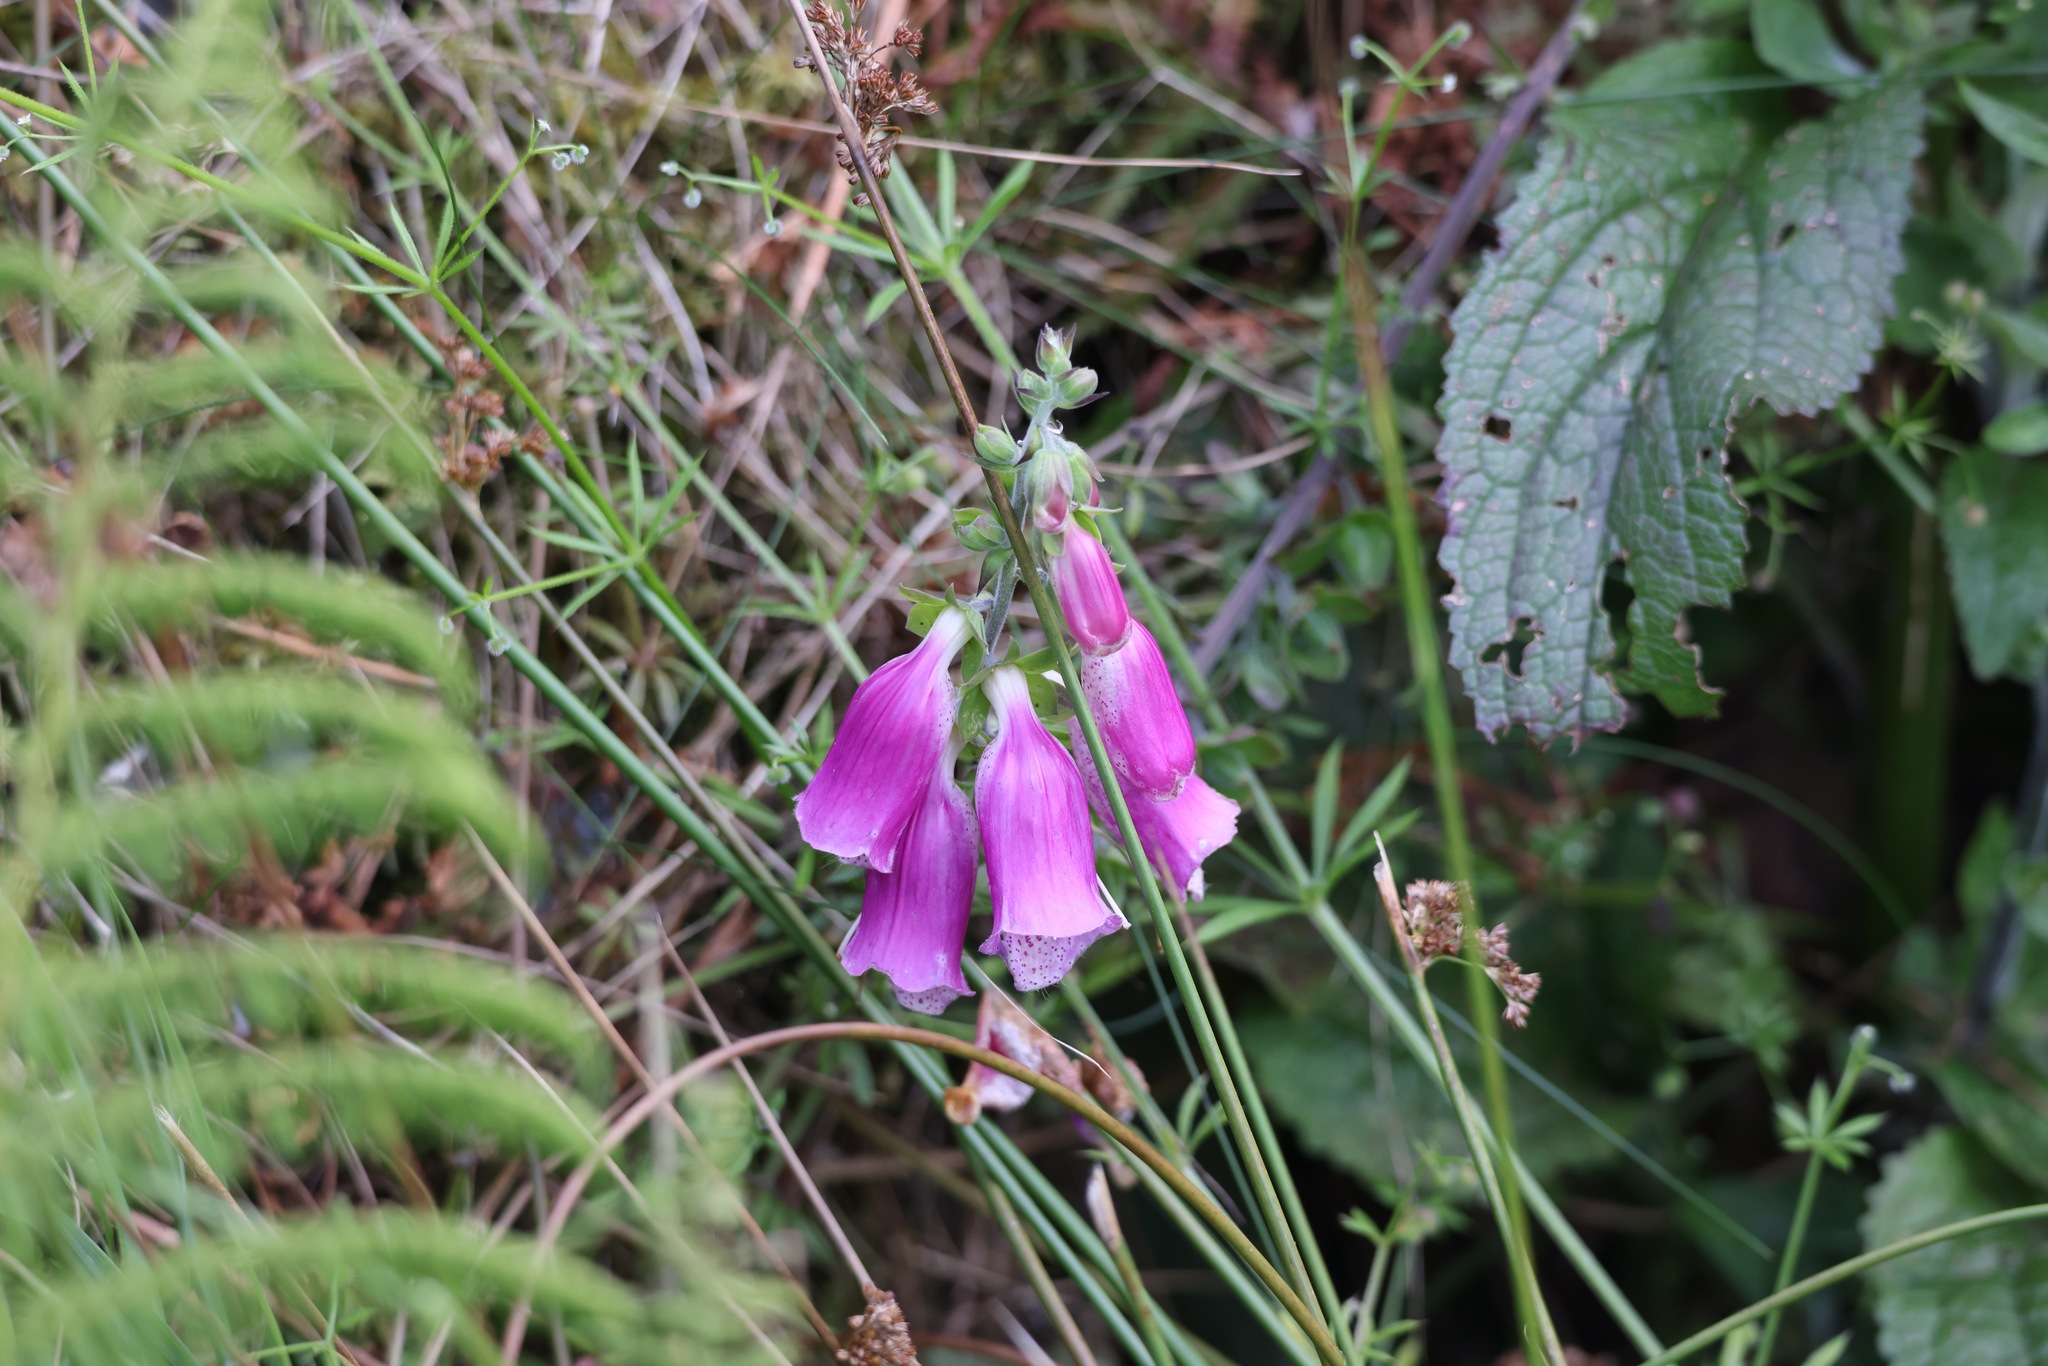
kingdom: Plantae
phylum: Tracheophyta
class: Magnoliopsida
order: Lamiales
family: Plantaginaceae
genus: Digitalis
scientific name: Digitalis purpurea
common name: Foxglove
